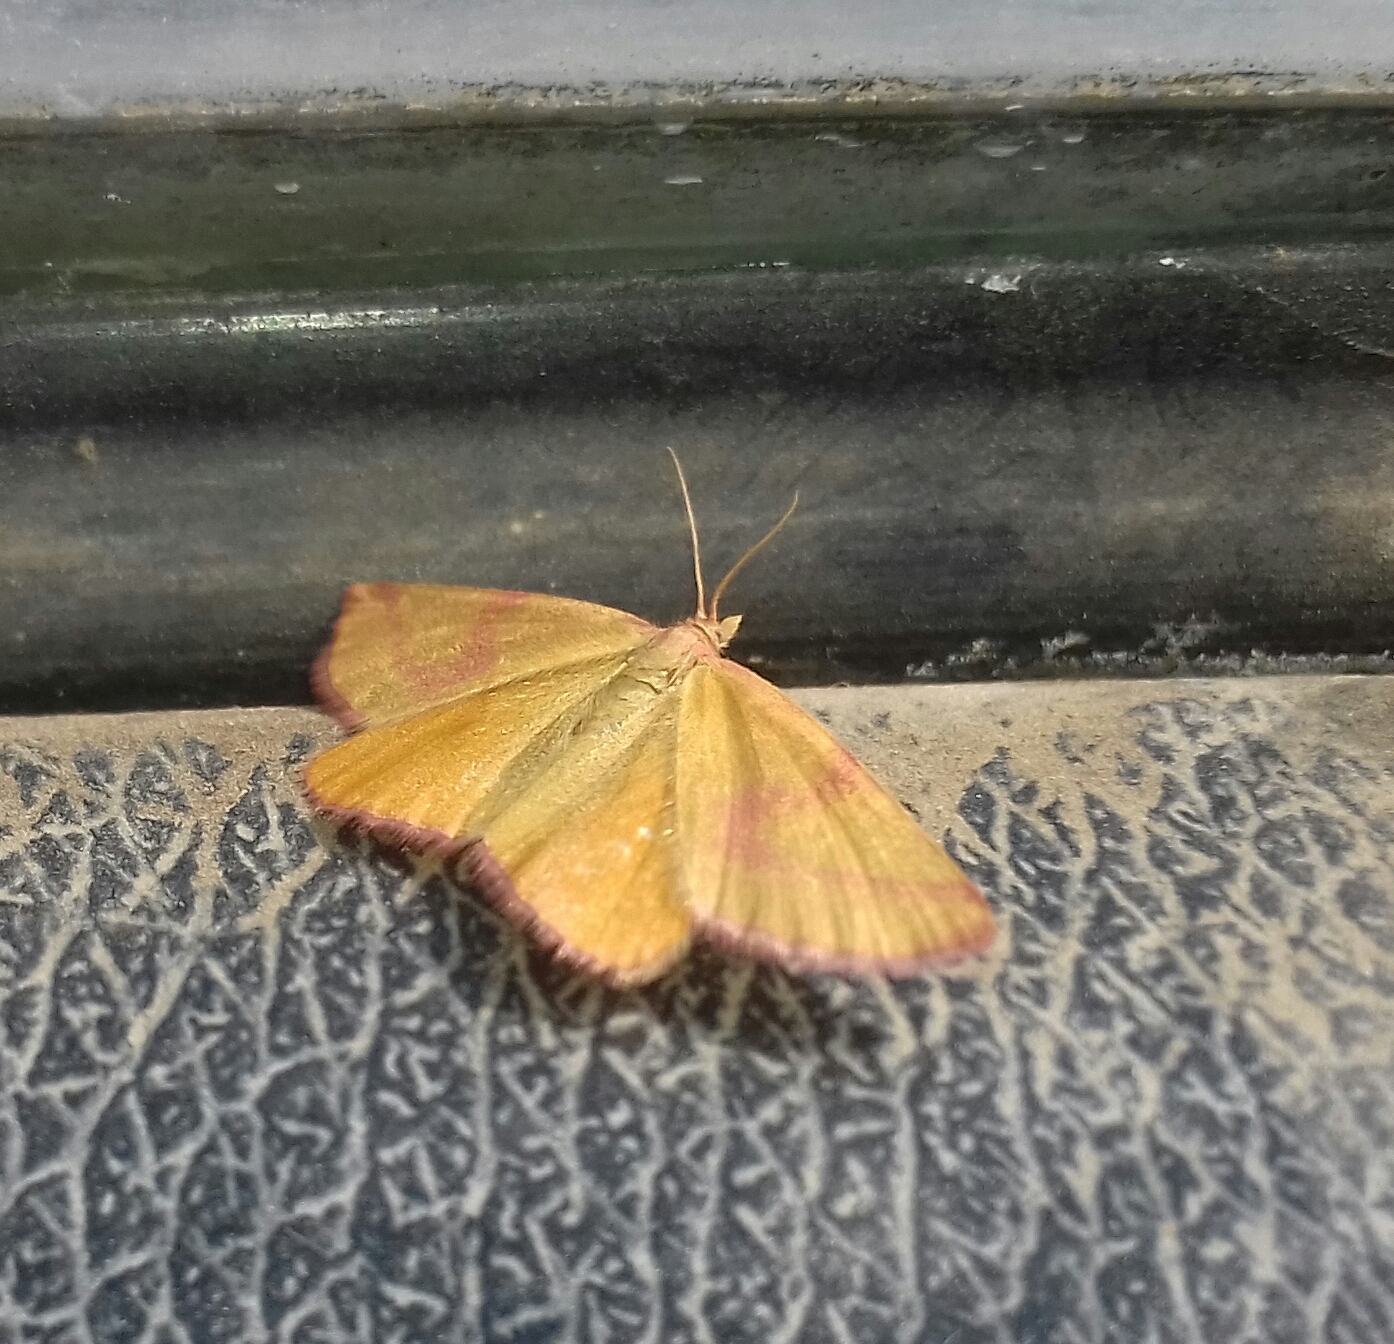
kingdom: Animalia
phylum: Arthropoda
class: Insecta
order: Lepidoptera
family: Geometridae
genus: Lythria
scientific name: Lythria purpuraria
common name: Purple-barred yellow
